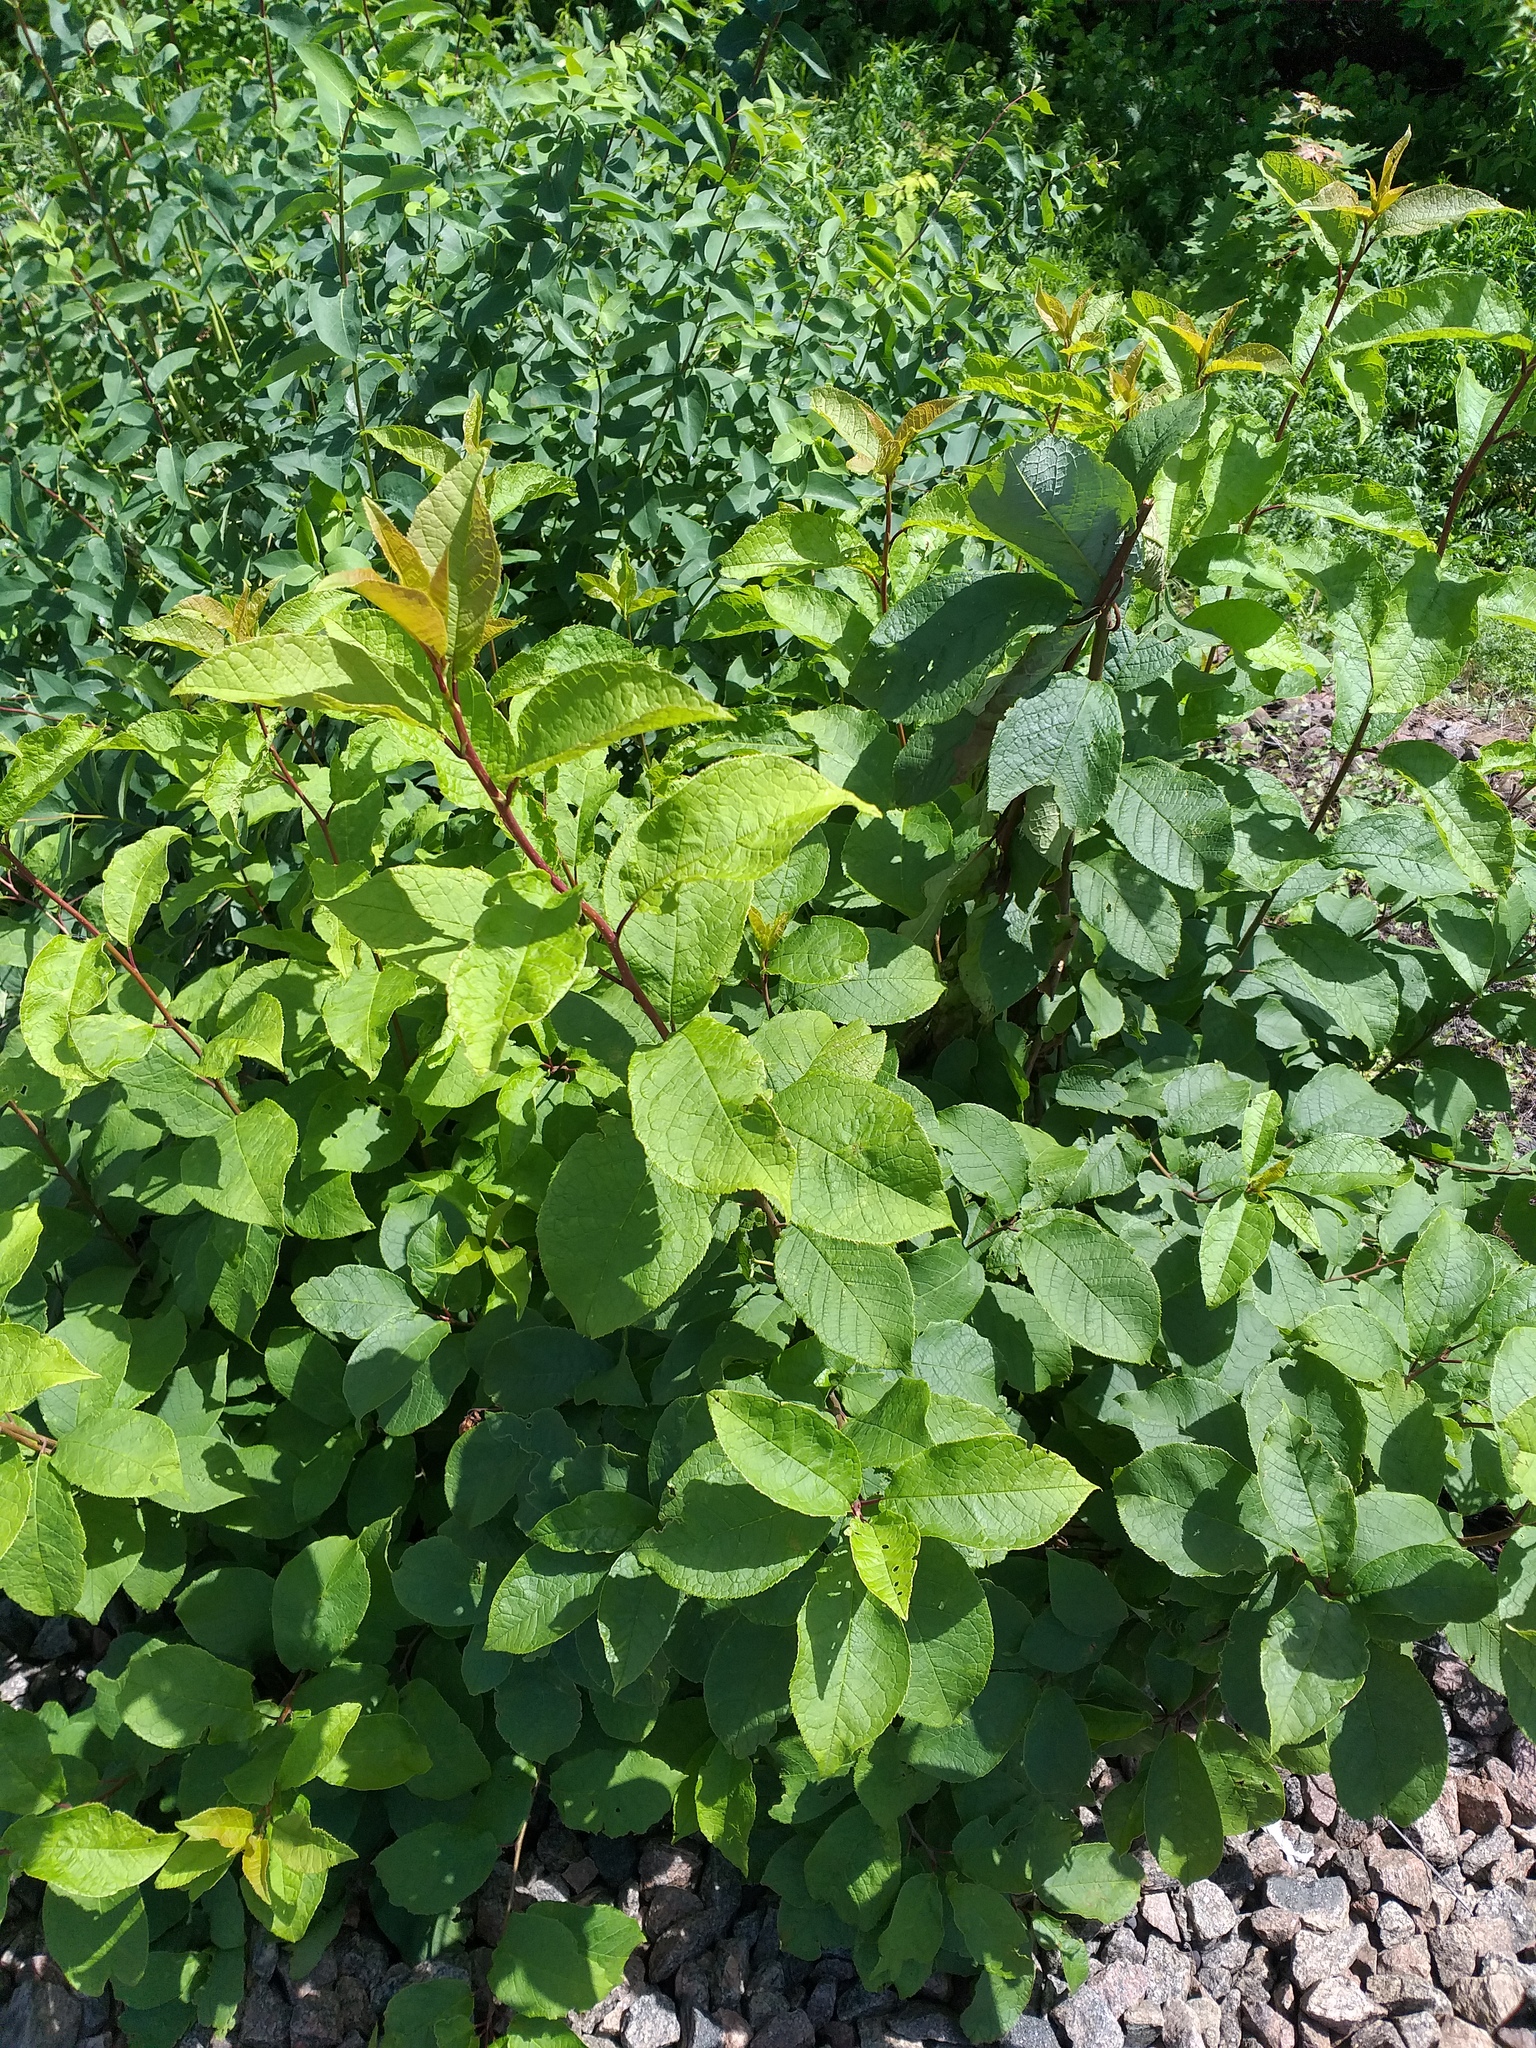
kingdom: Plantae
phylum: Tracheophyta
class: Magnoliopsida
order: Rosales
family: Rosaceae
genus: Prunus
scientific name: Prunus padus
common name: Bird cherry
